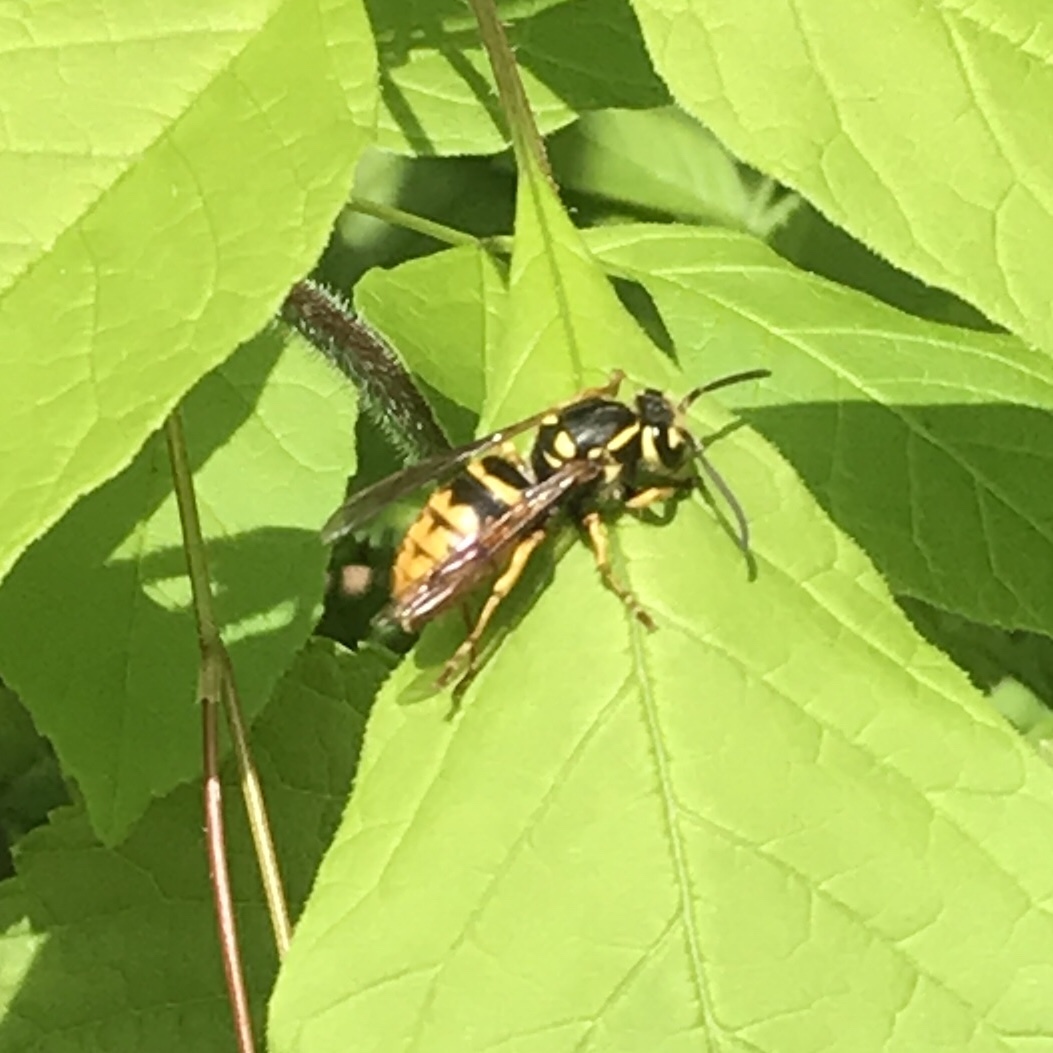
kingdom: Animalia
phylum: Arthropoda
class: Insecta
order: Hymenoptera
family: Vespidae
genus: Vespula
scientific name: Vespula flavopilosa
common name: Downy yellowjacket
